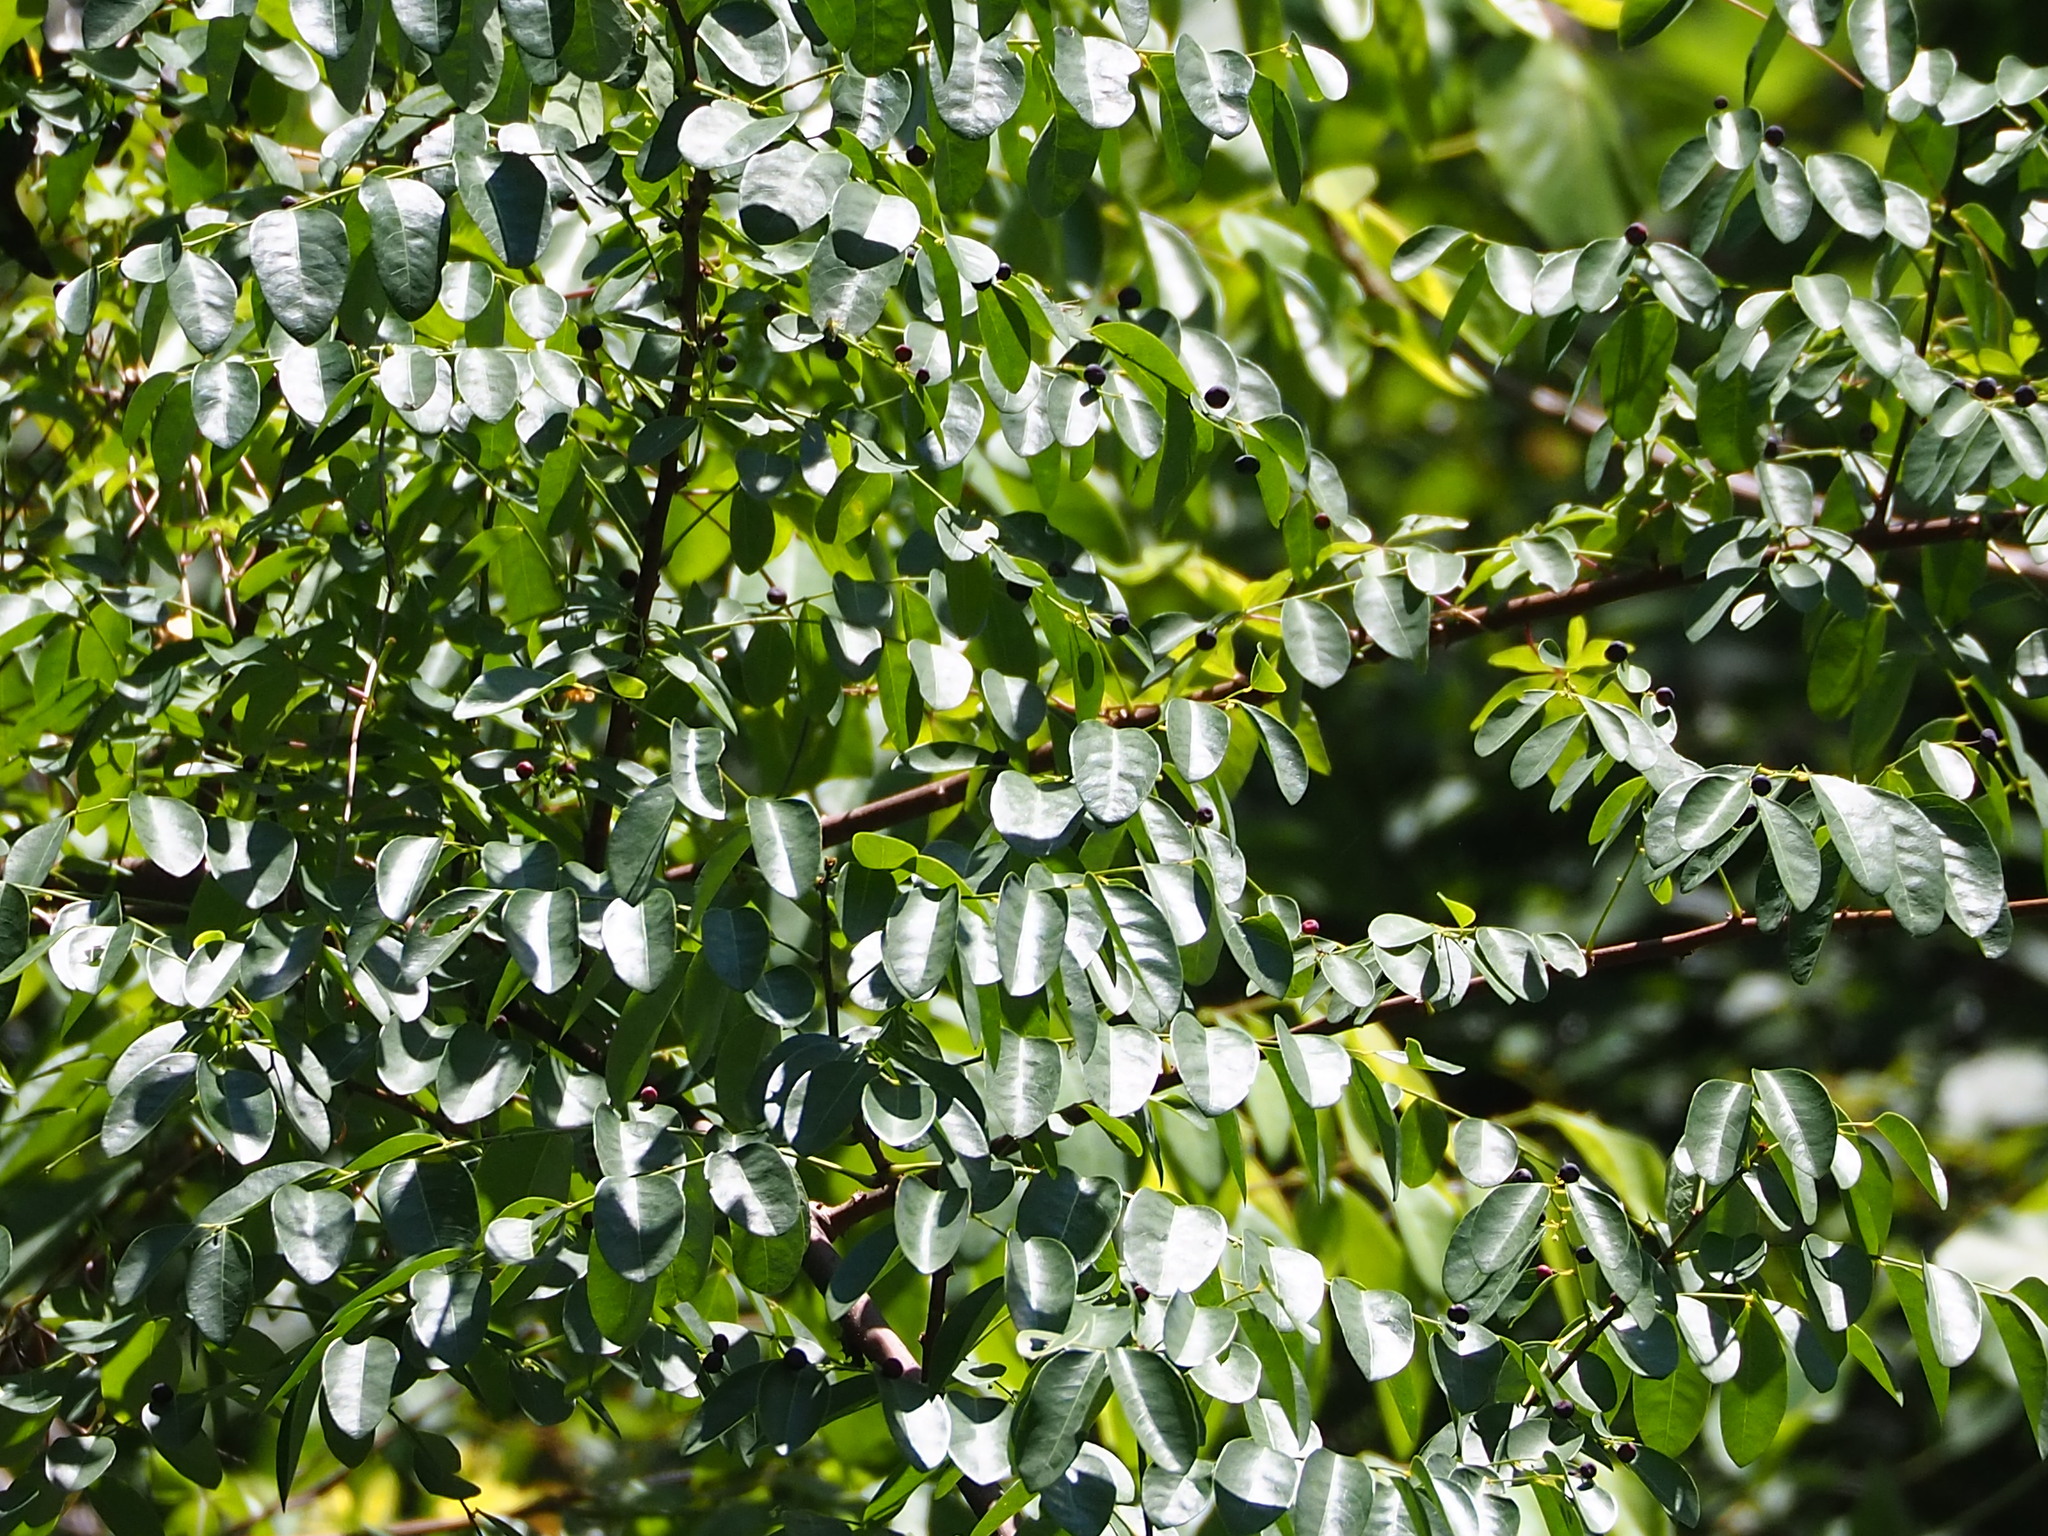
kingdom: Plantae
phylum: Tracheophyta
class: Magnoliopsida
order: Malpighiales
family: Phyllanthaceae
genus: Phyllanthus
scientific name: Phyllanthus reticulatus
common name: Potato bush
